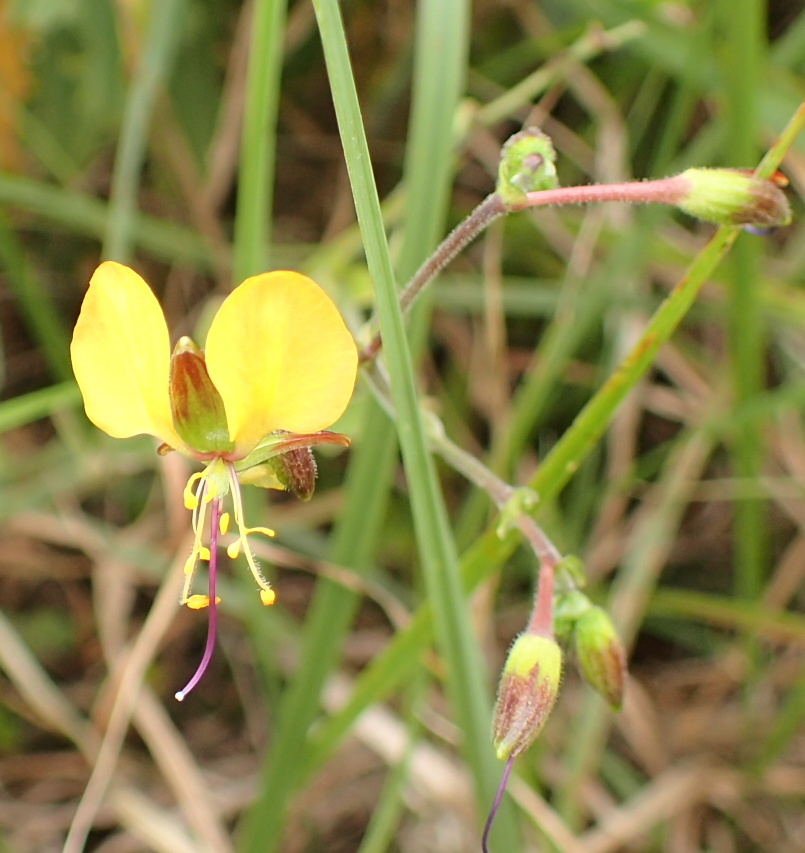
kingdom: Plantae
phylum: Tracheophyta
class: Liliopsida
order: Commelinales
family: Commelinaceae
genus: Aneilema
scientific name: Aneilema aequinoctiale
